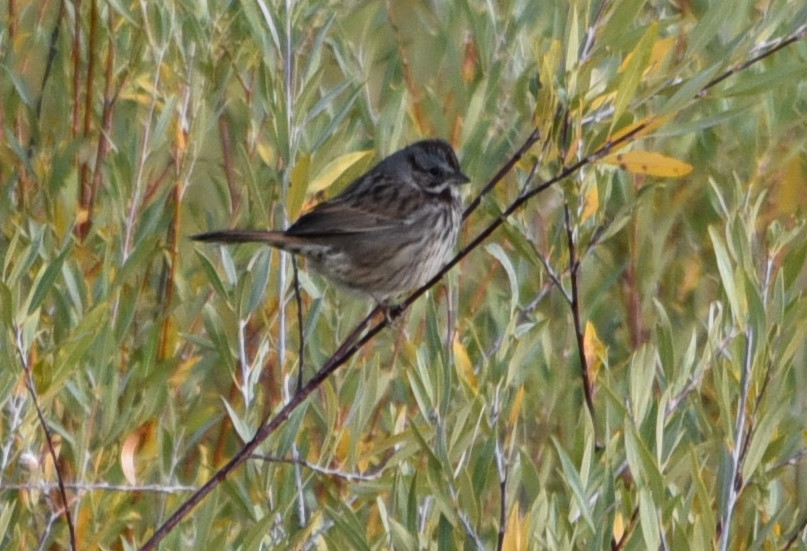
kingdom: Animalia
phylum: Chordata
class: Aves
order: Passeriformes
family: Passerellidae
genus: Melospiza
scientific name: Melospiza melodia
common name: Song sparrow
